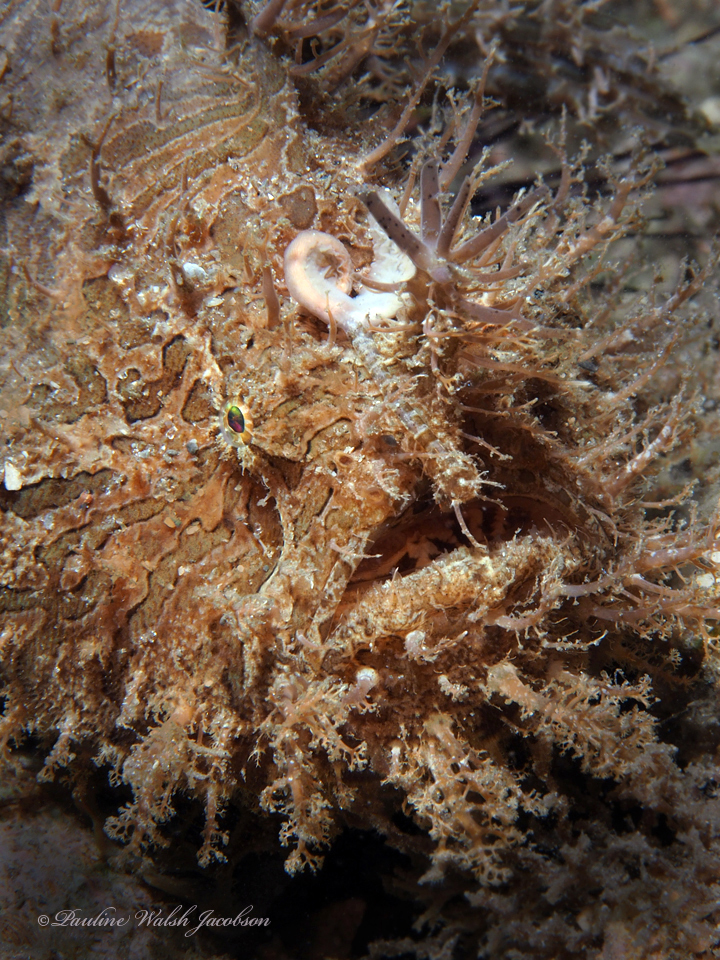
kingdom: Animalia
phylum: Chordata
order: Lophiiformes
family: Antennariidae
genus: Antennarius
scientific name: Antennarius striatus
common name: Striated frogfish
